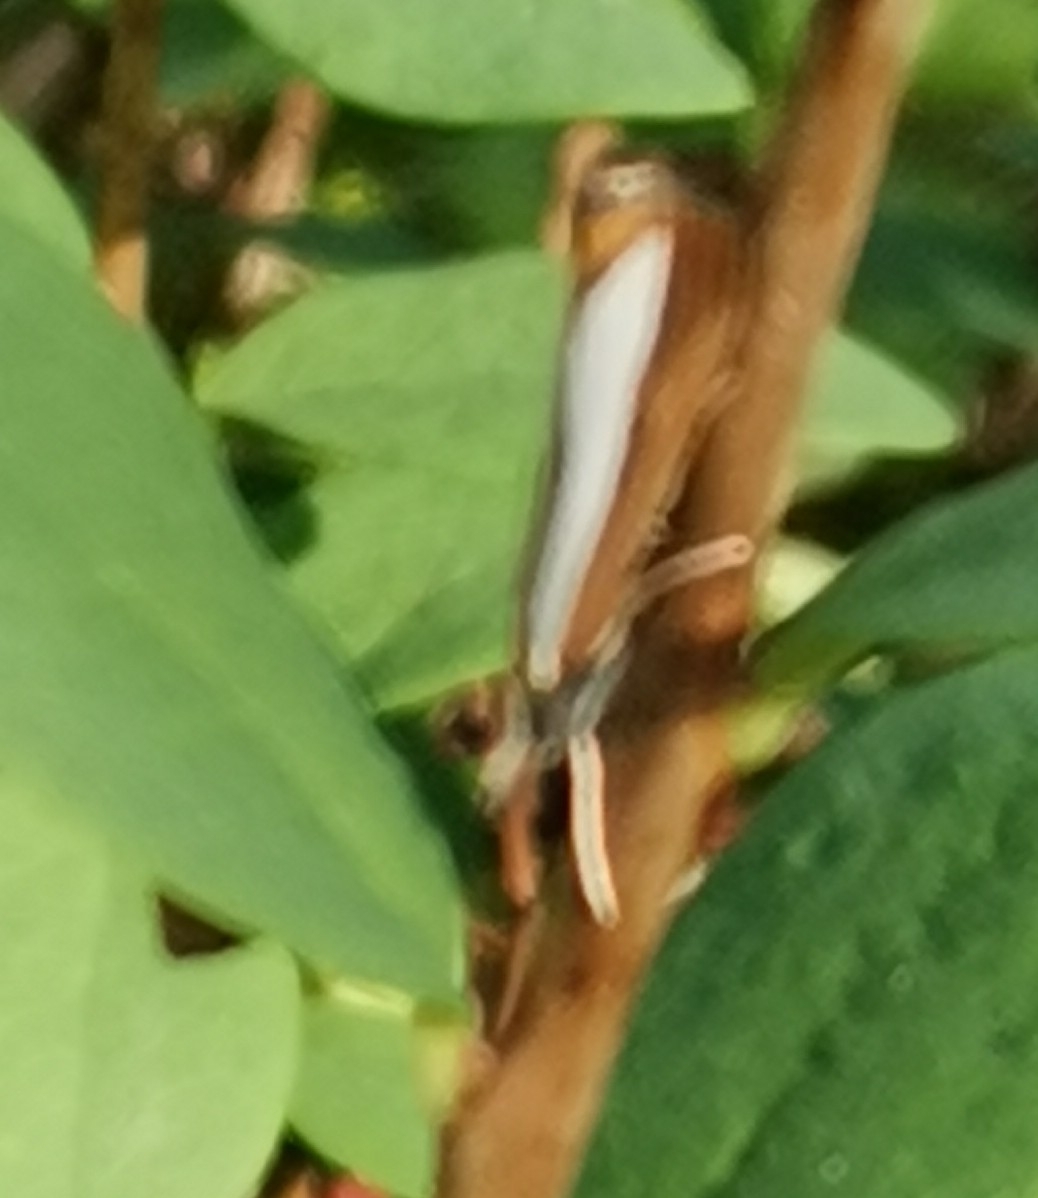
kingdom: Animalia
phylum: Arthropoda
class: Insecta
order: Lepidoptera
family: Crambidae
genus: Catoptria
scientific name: Catoptria margaritellus
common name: Pearl-band grass veneer
